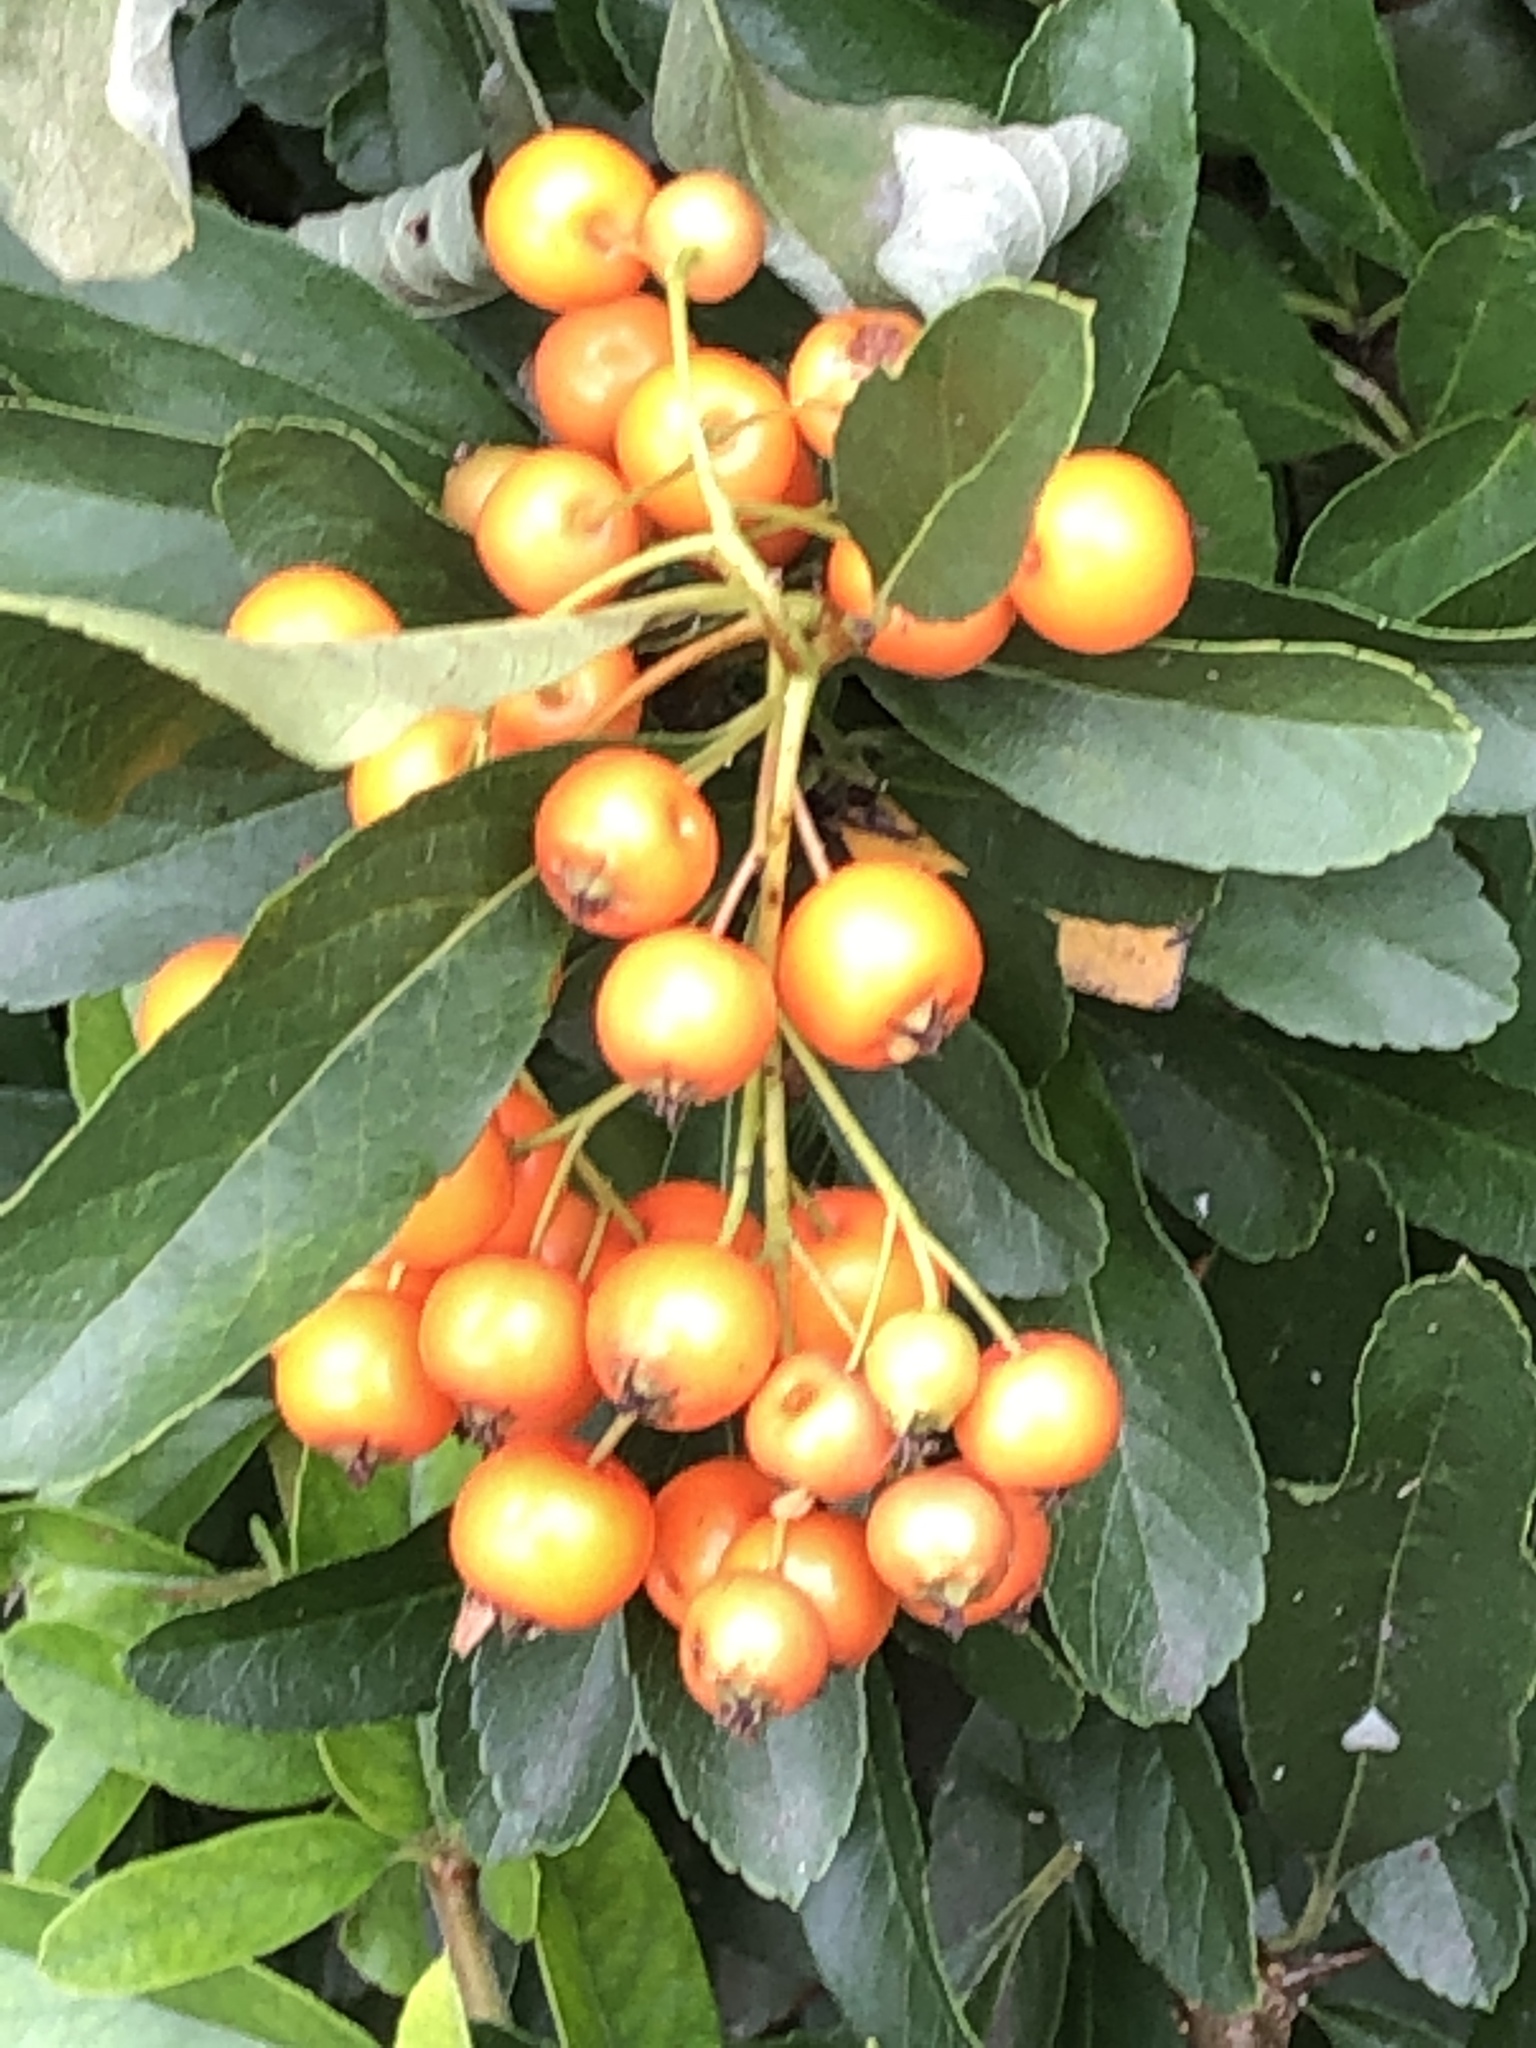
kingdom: Plantae
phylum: Tracheophyta
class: Magnoliopsida
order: Rosales
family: Rosaceae
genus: Pyracantha
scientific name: Pyracantha coccinea
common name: Firethorn
